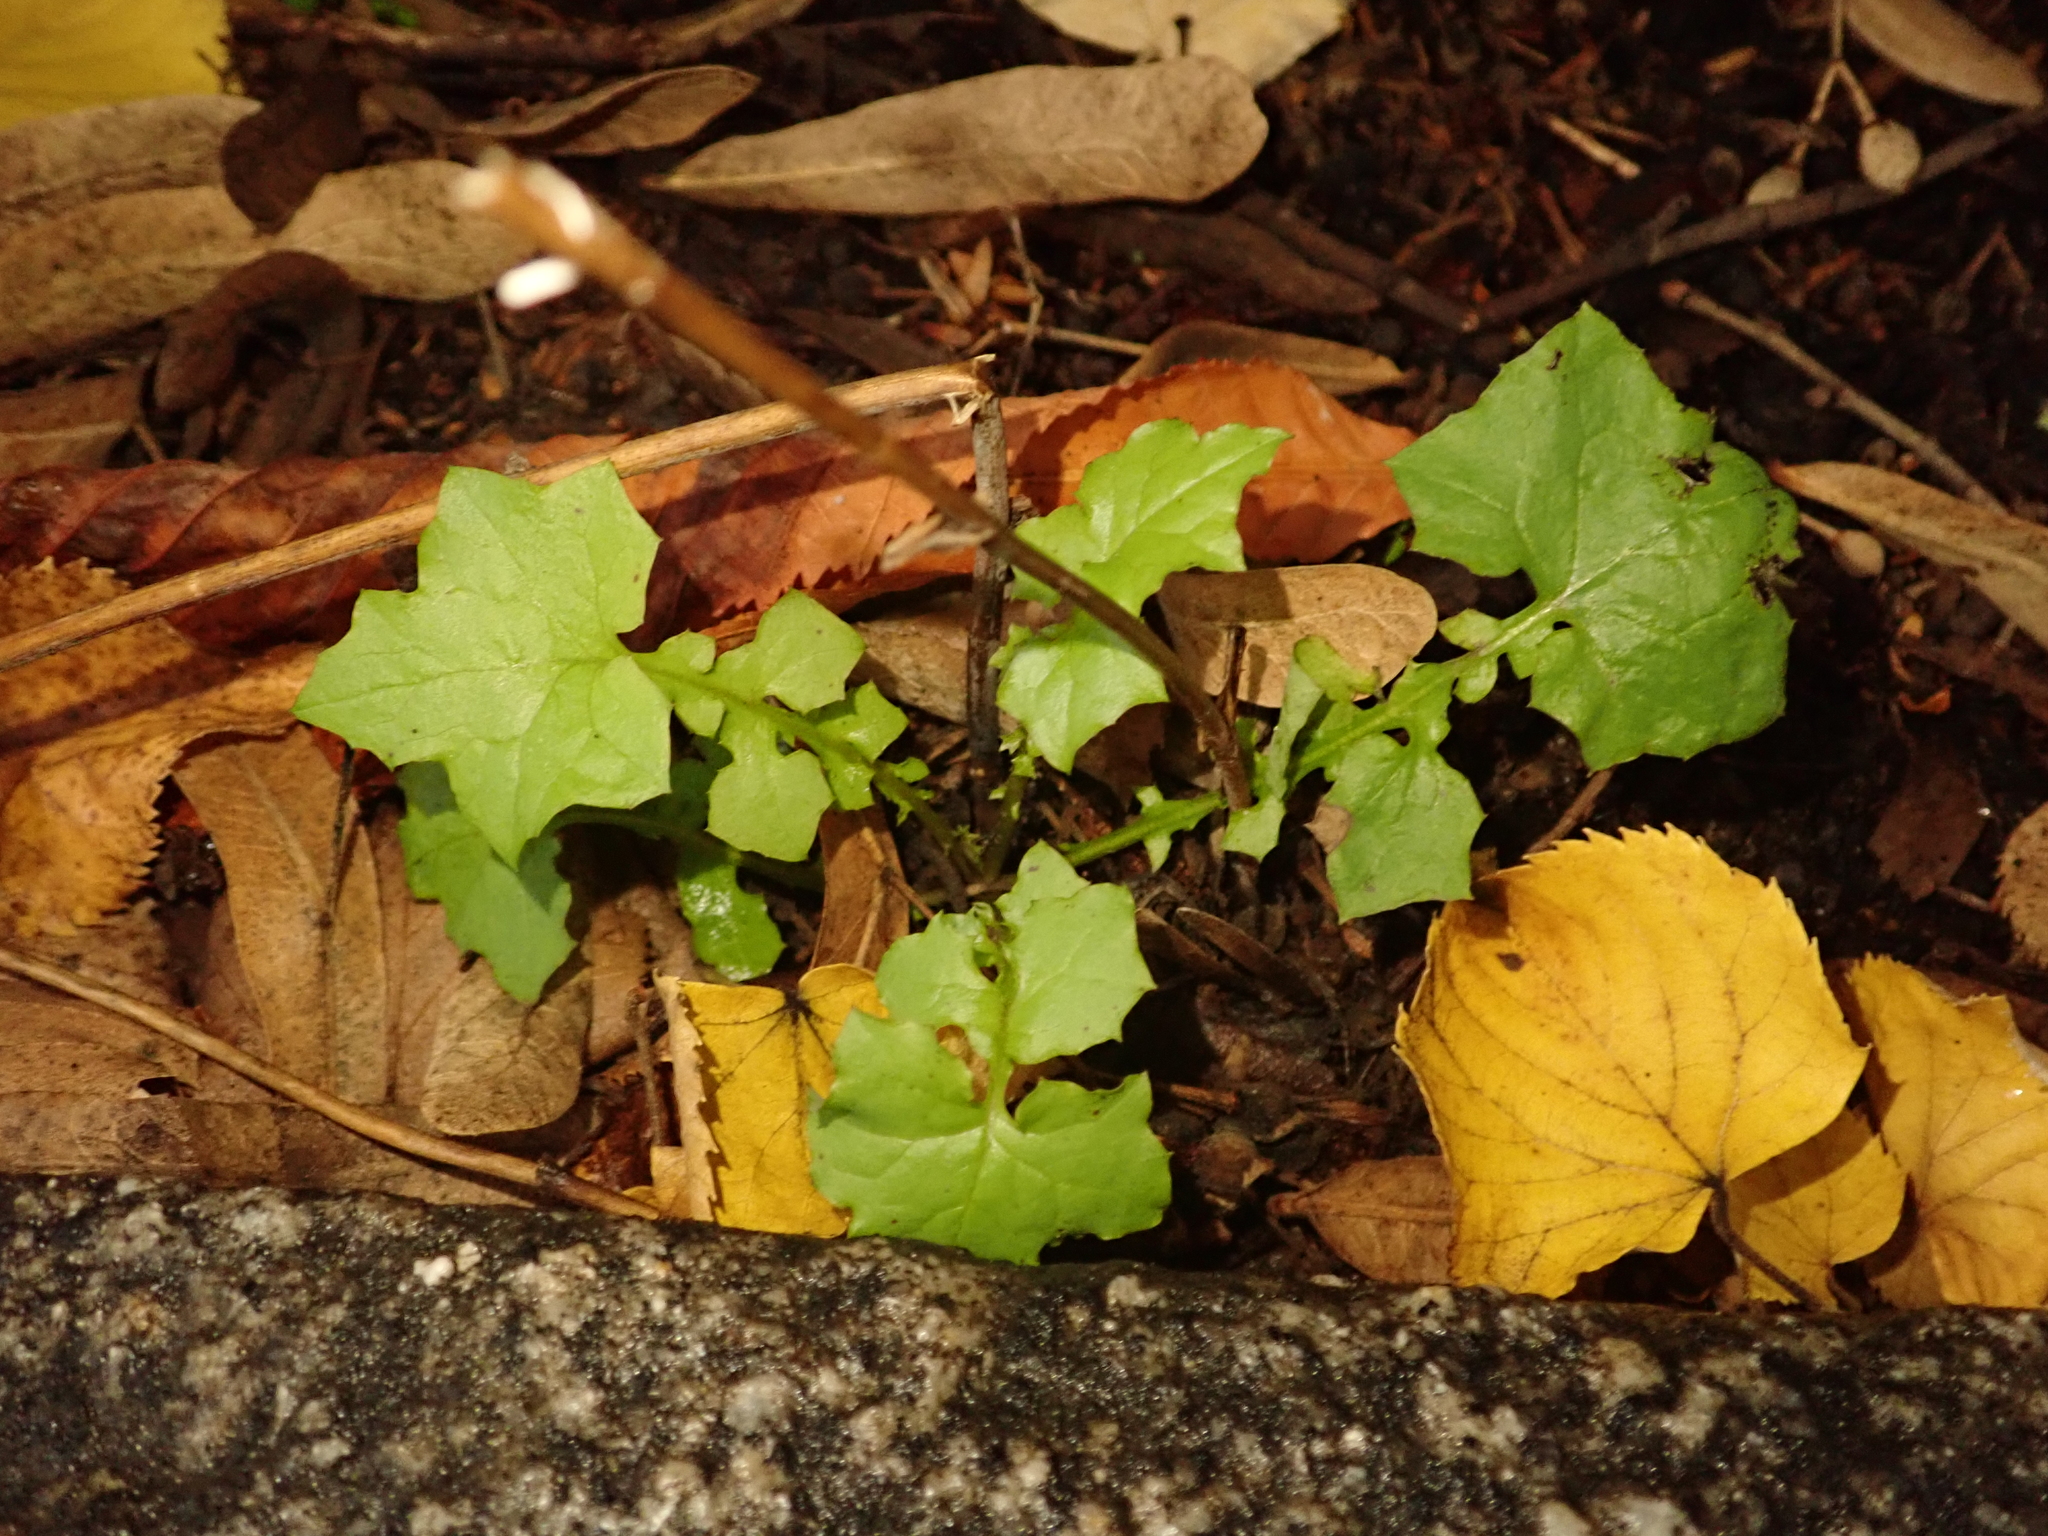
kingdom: Plantae
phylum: Tracheophyta
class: Magnoliopsida
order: Asterales
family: Asteraceae
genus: Mycelis
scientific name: Mycelis muralis
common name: Wall lettuce
